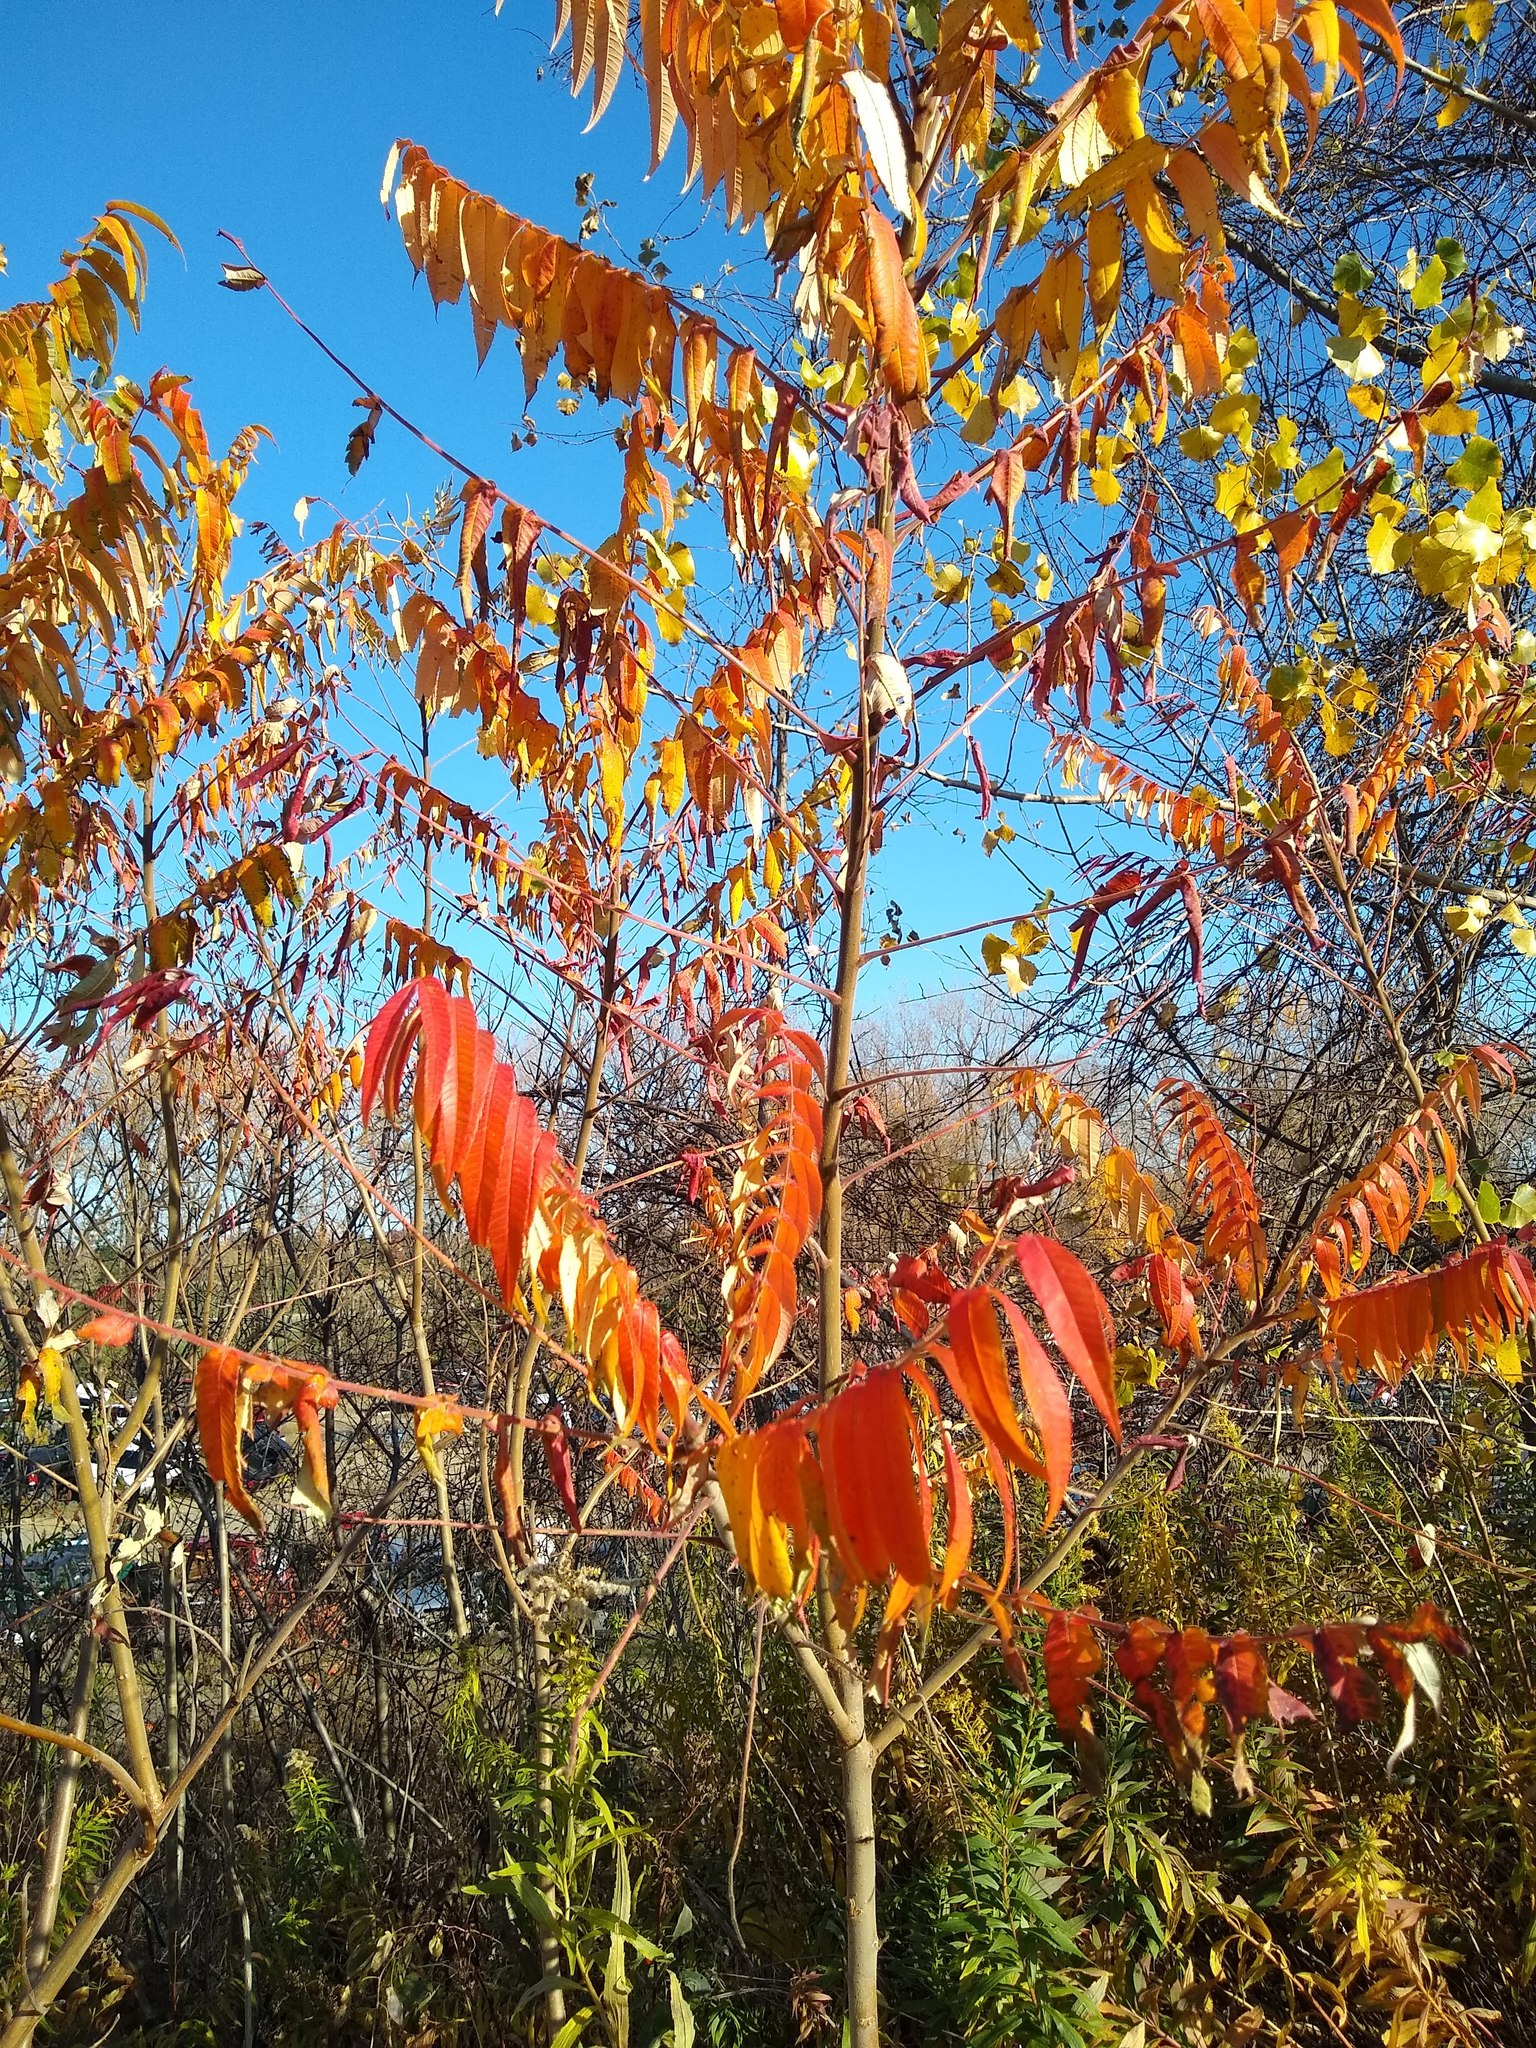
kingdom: Plantae
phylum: Tracheophyta
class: Magnoliopsida
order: Sapindales
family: Anacardiaceae
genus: Rhus
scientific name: Rhus typhina
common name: Staghorn sumac
